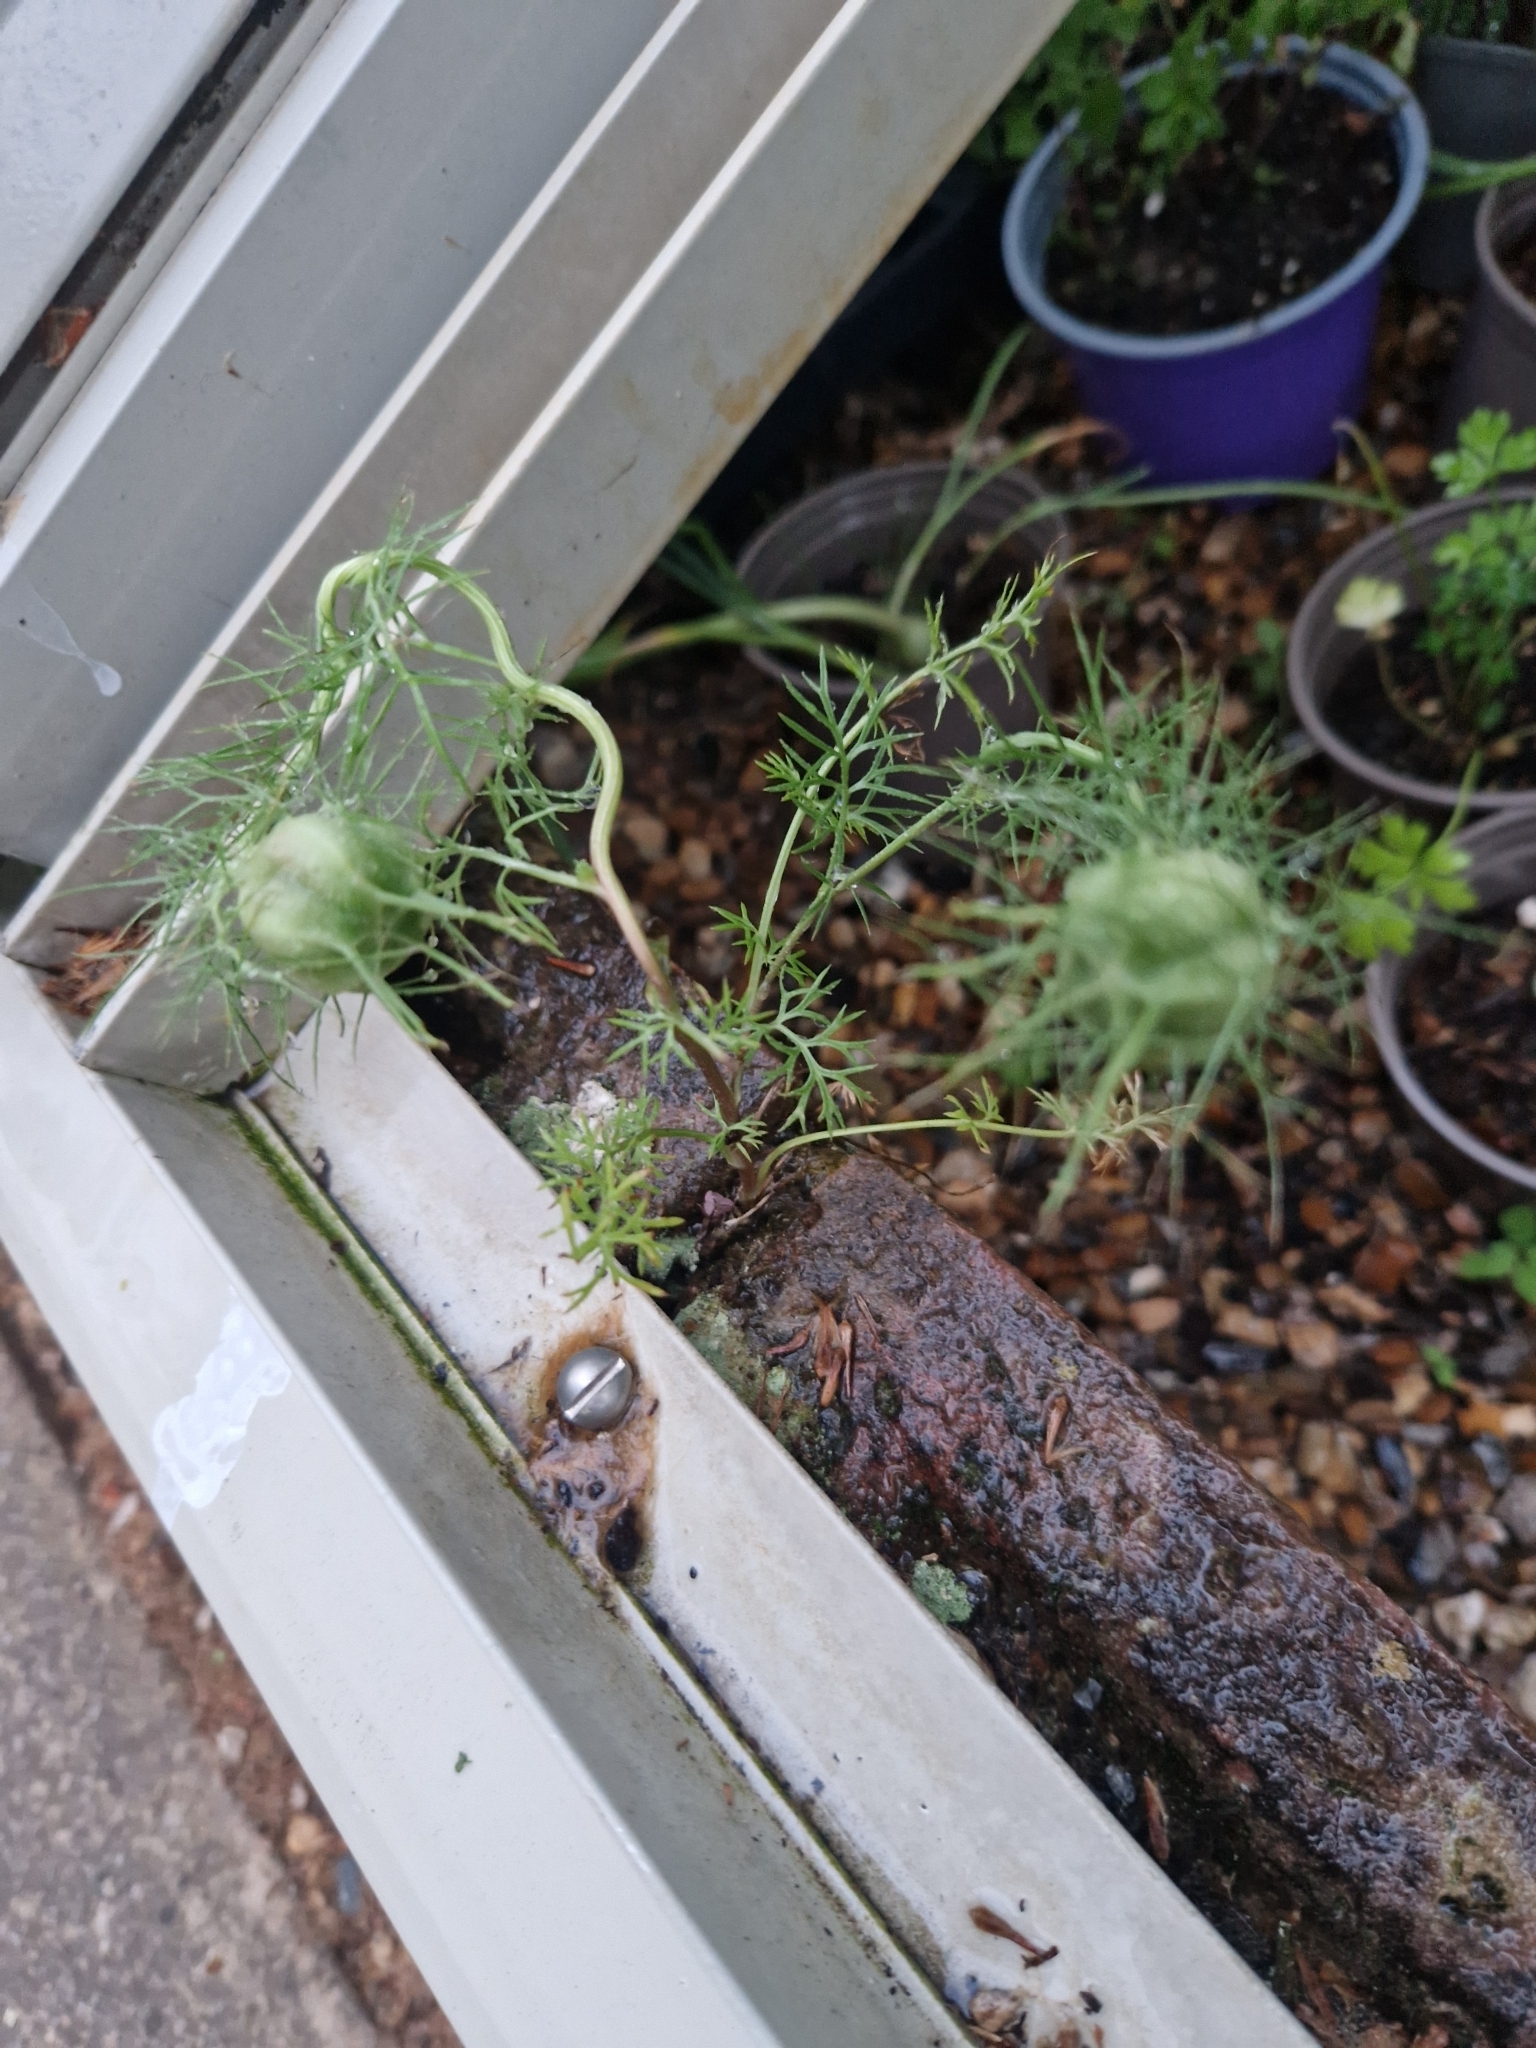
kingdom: Plantae
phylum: Tracheophyta
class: Magnoliopsida
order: Ranunculales
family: Ranunculaceae
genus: Nigella
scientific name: Nigella damascena
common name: Love-in-a-mist
